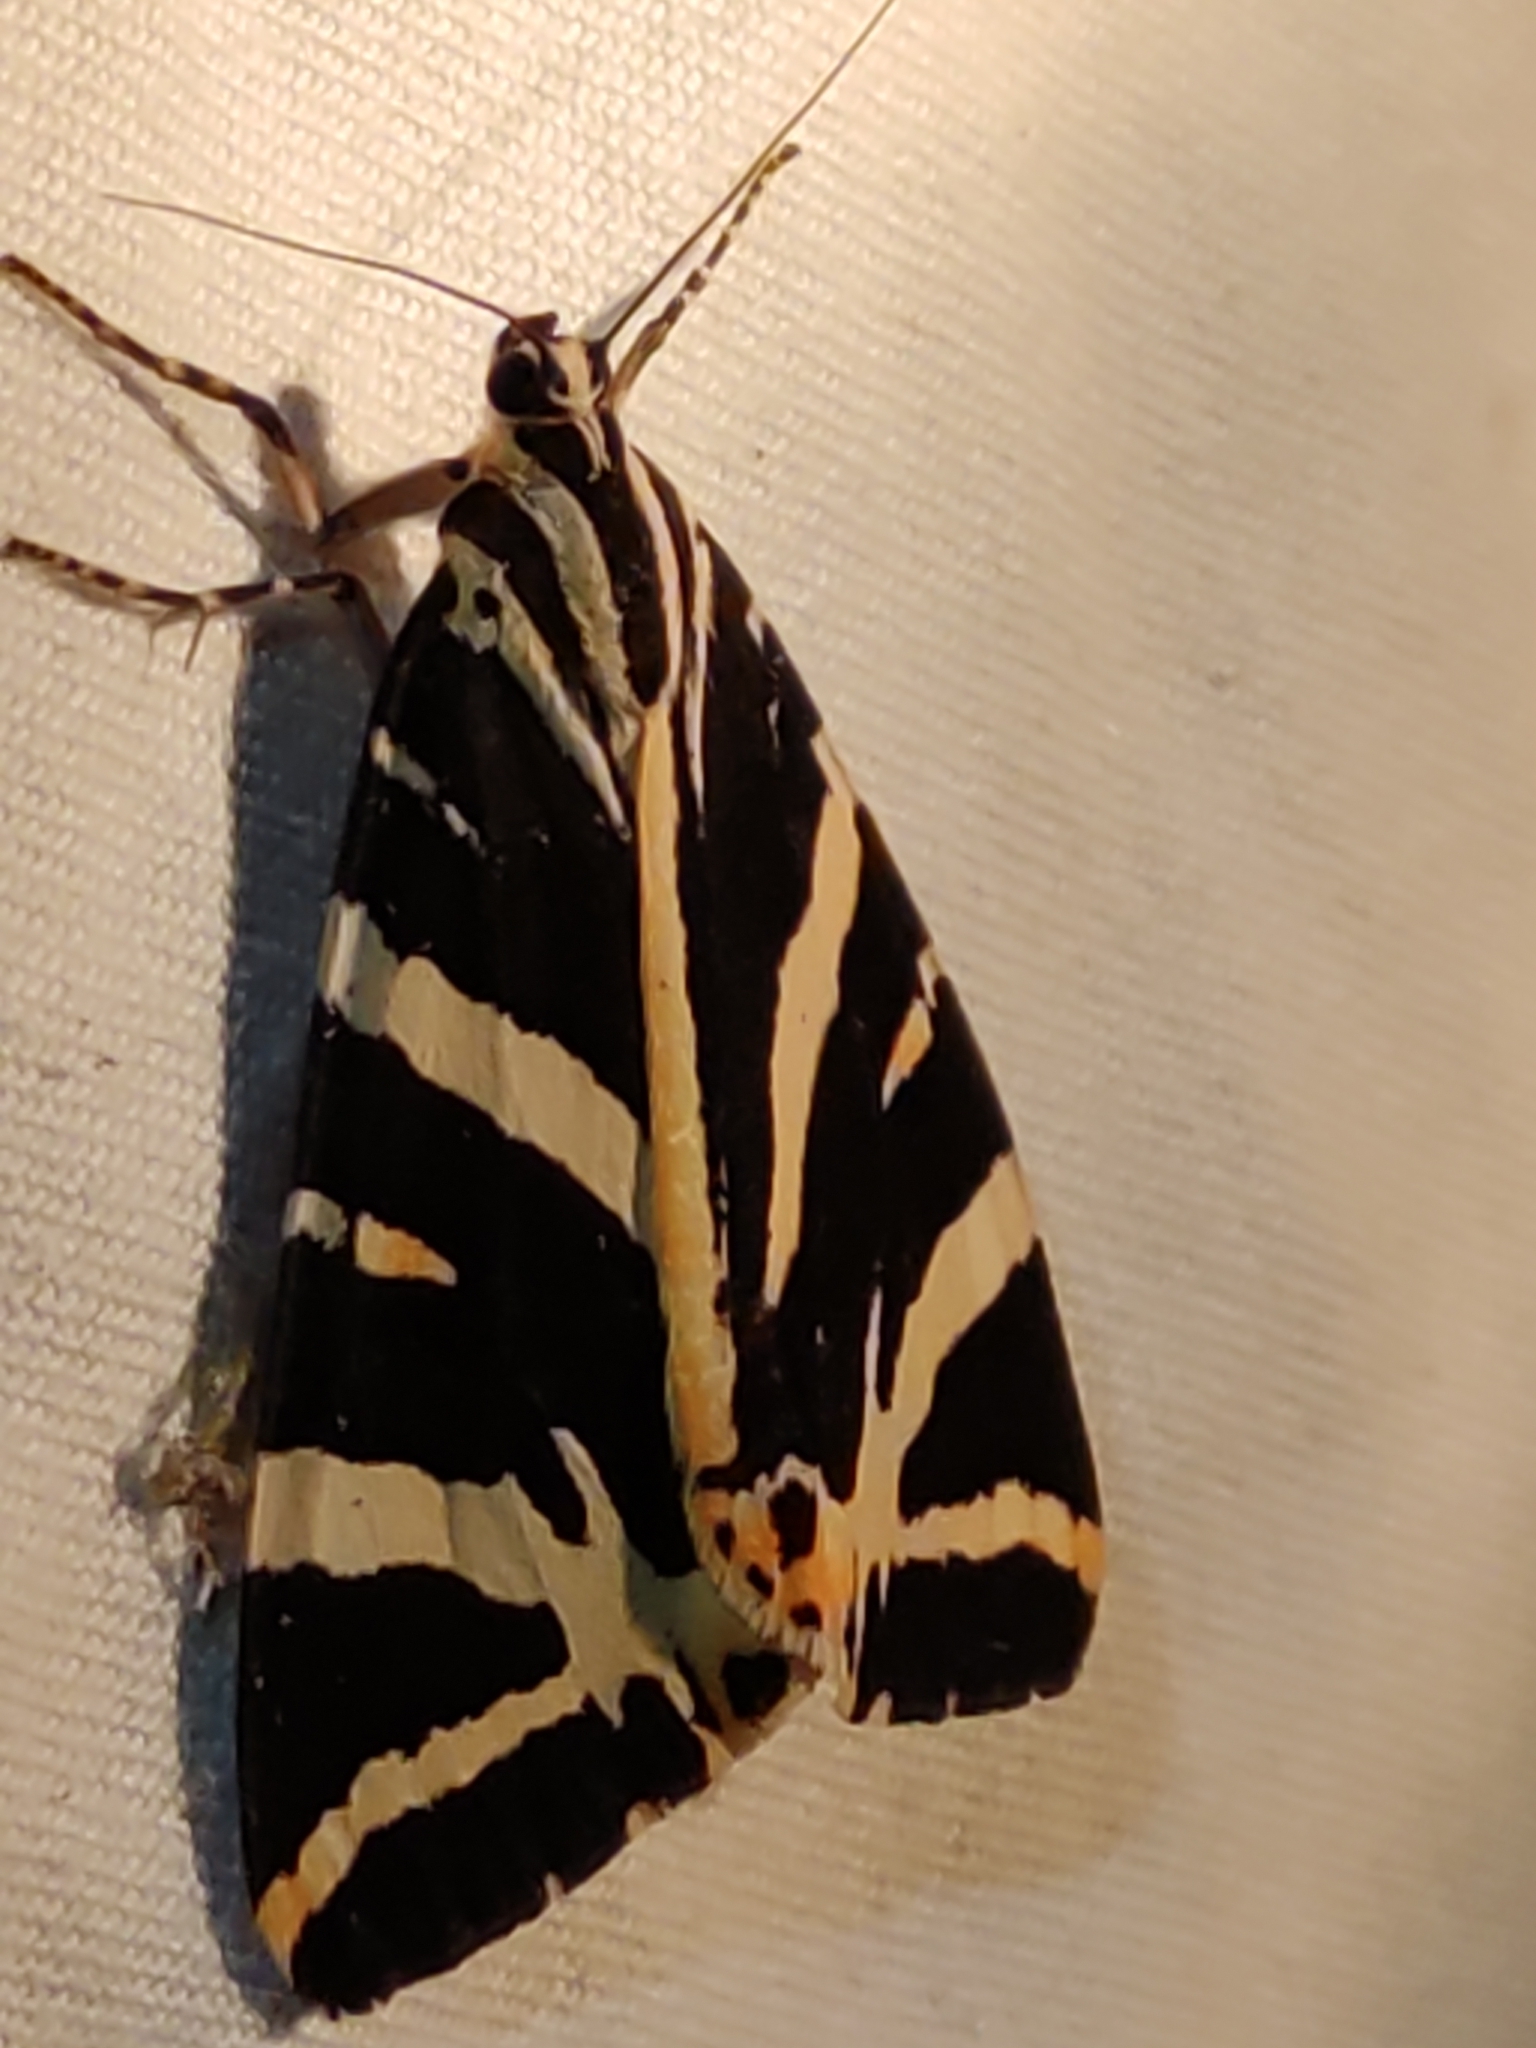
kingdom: Animalia
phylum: Arthropoda
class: Insecta
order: Lepidoptera
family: Erebidae
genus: Euplagia
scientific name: Euplagia quadripunctaria
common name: Jersey tiger
